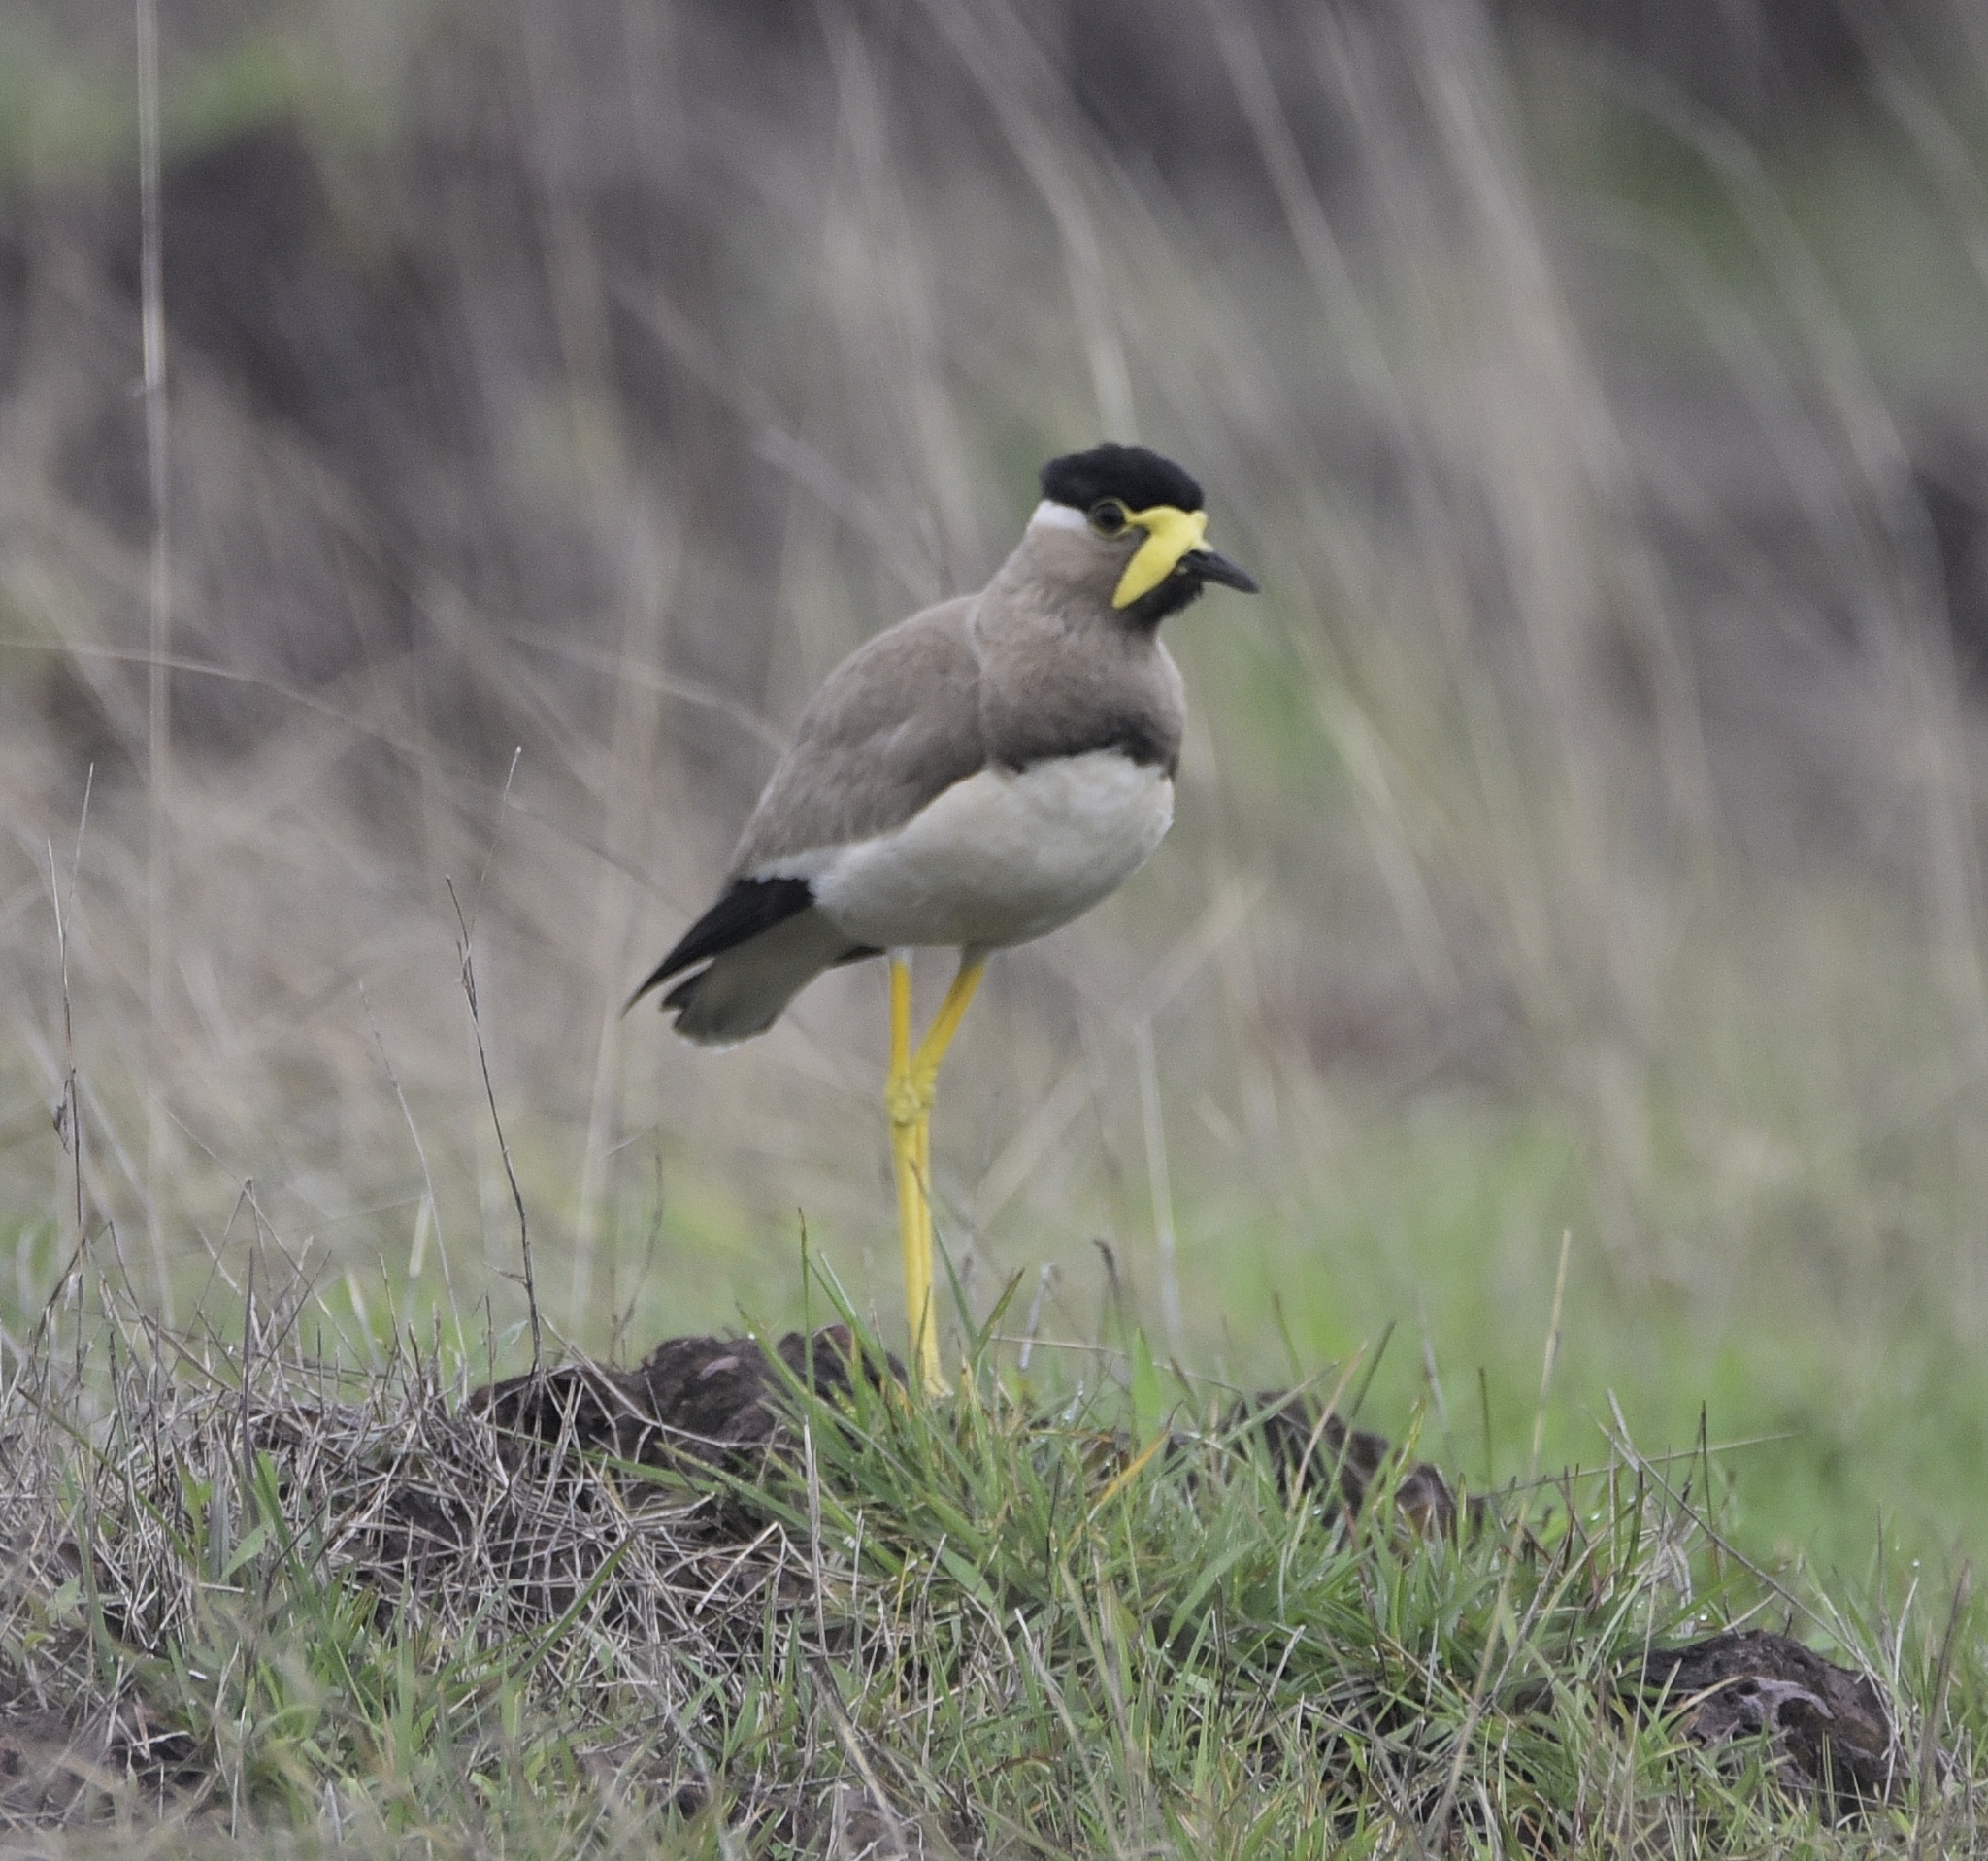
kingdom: Animalia
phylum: Chordata
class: Aves
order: Charadriiformes
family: Charadriidae
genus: Vanellus
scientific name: Vanellus malabaricus
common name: Yellow-wattled lapwing
